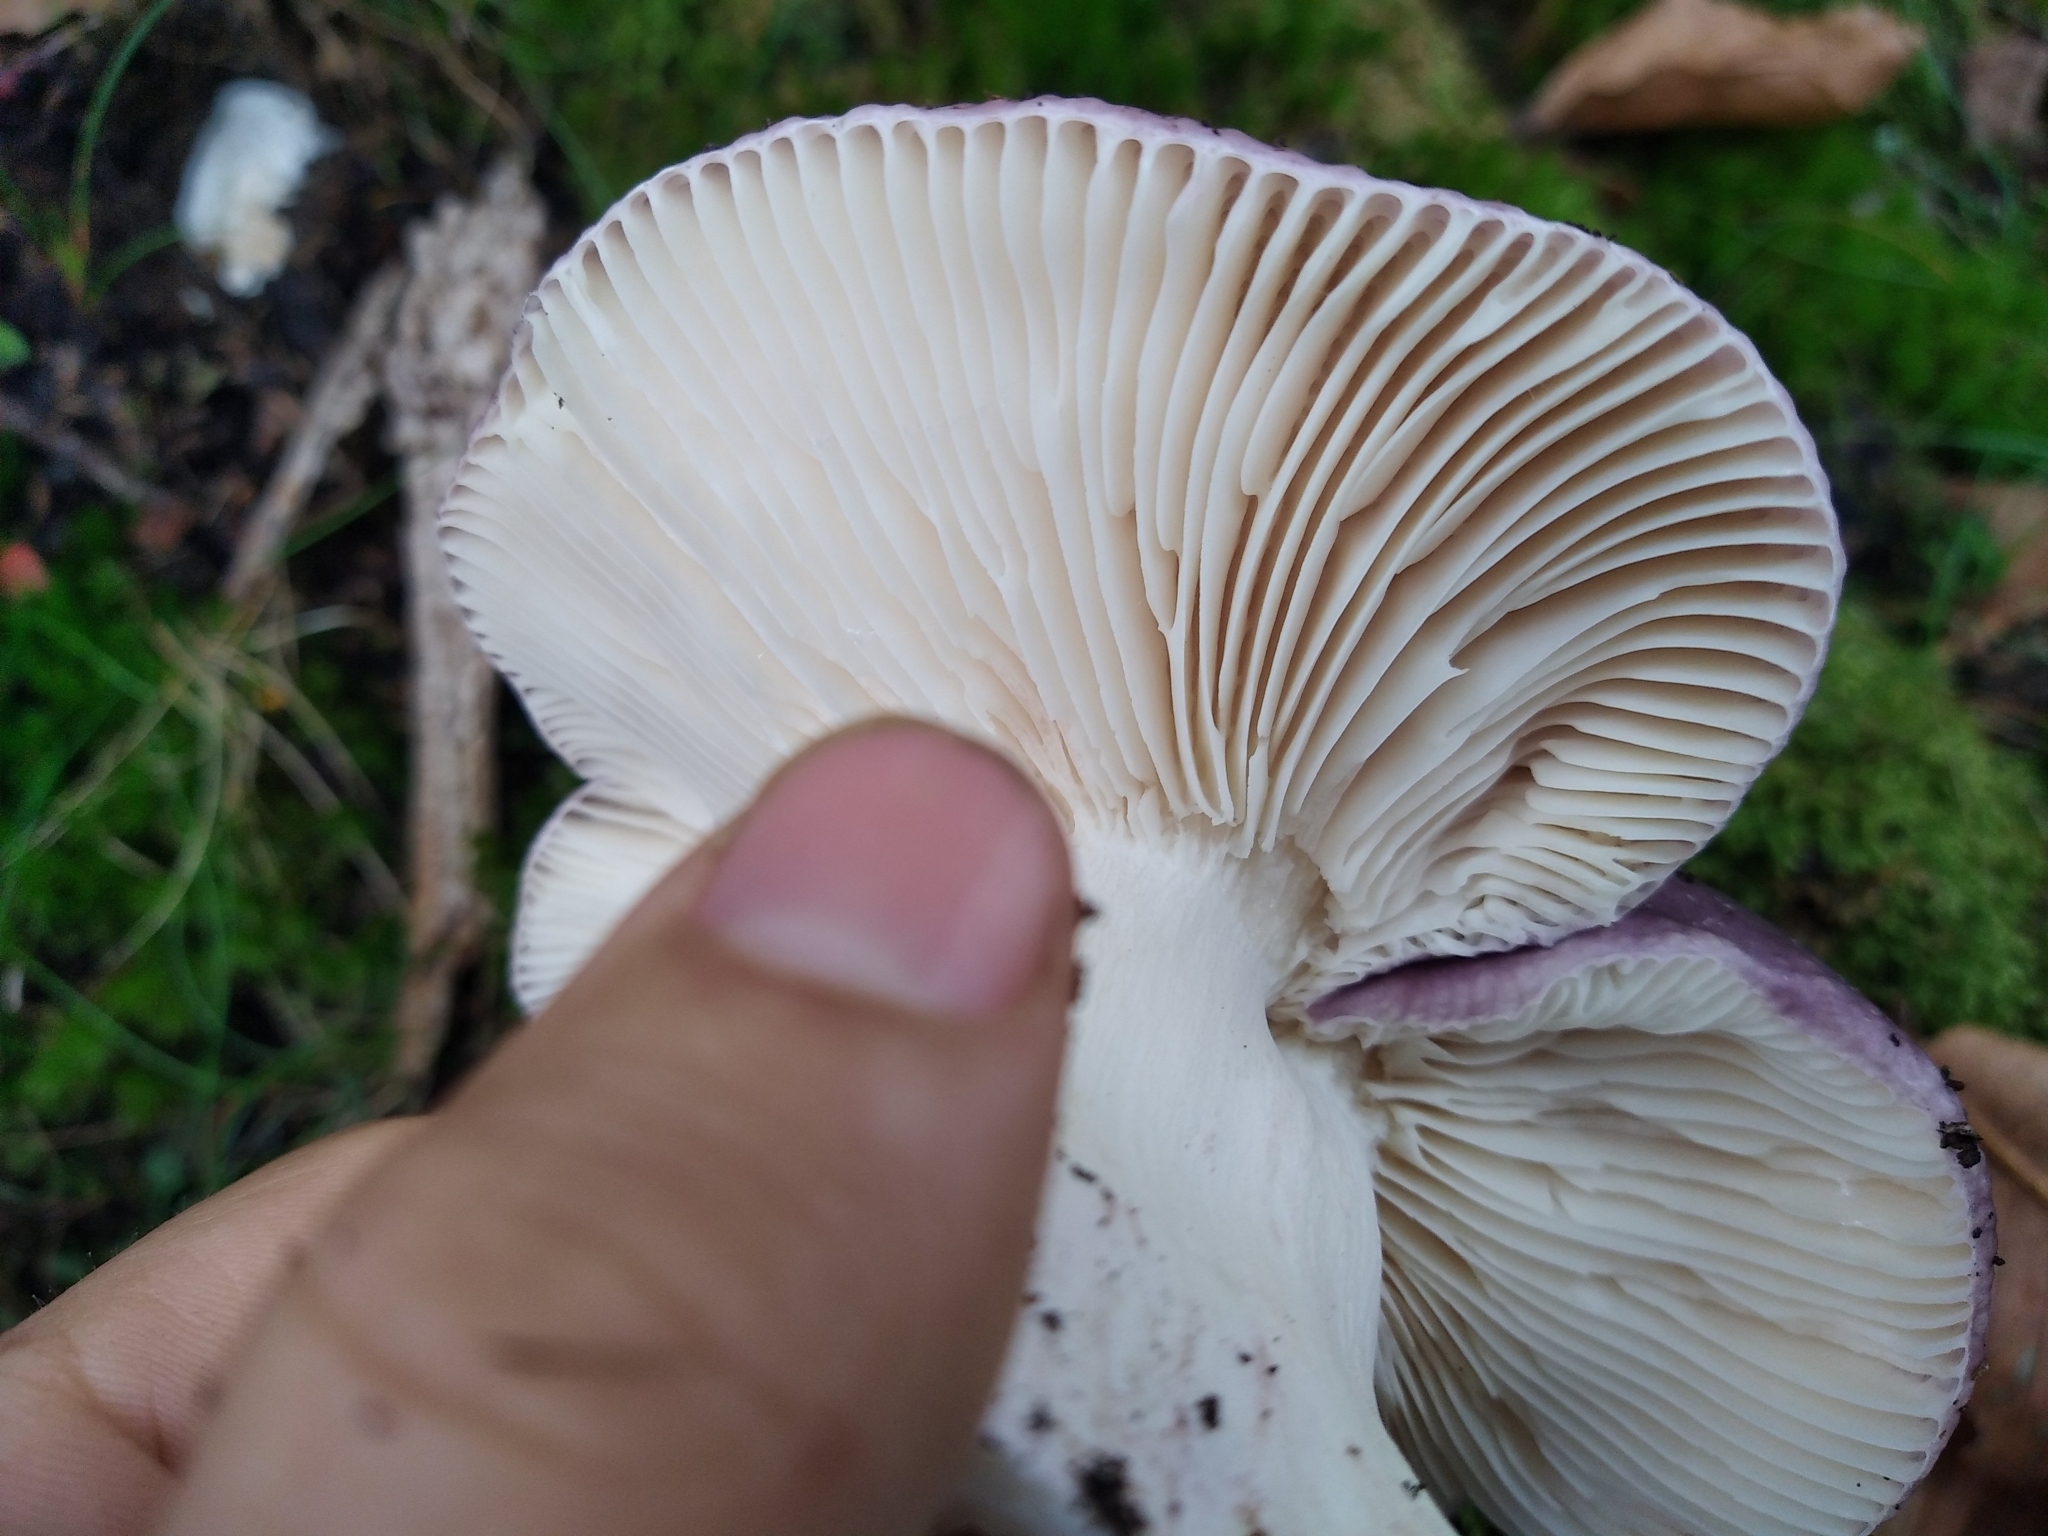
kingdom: Fungi
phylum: Basidiomycota
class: Agaricomycetes
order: Russulales
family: Russulaceae
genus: Russula
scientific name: Russula cyanoxantha
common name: Charcoal burner
